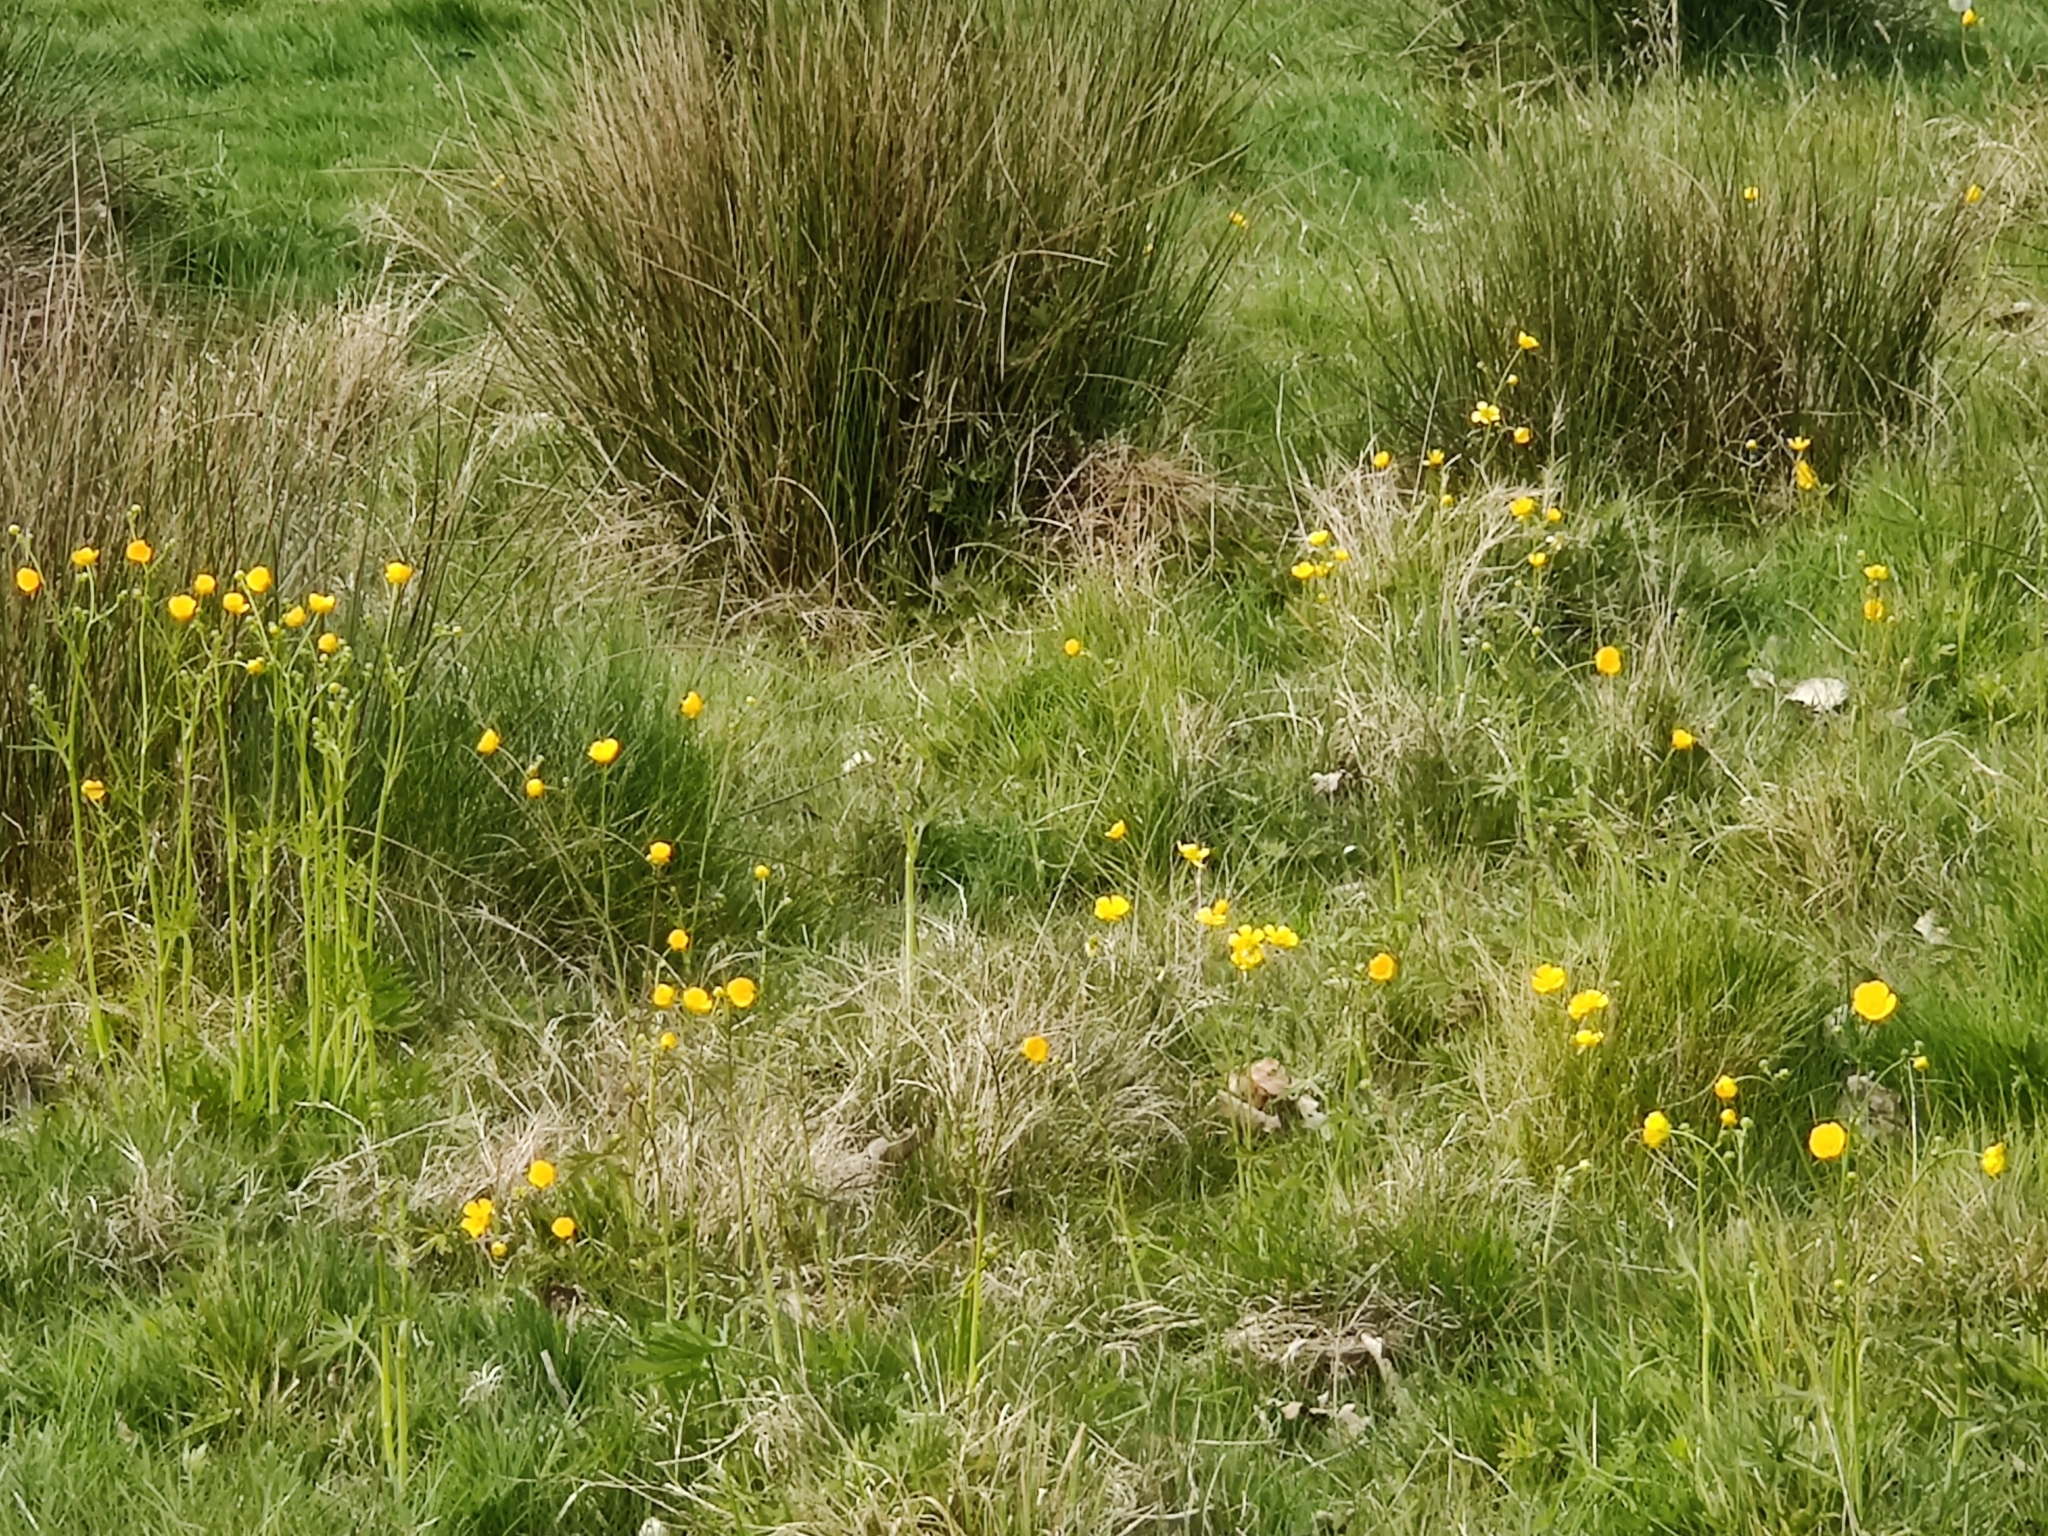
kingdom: Plantae
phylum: Tracheophyta
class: Magnoliopsida
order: Ranunculales
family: Ranunculaceae
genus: Ranunculus
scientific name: Ranunculus acris
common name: Meadow buttercup
